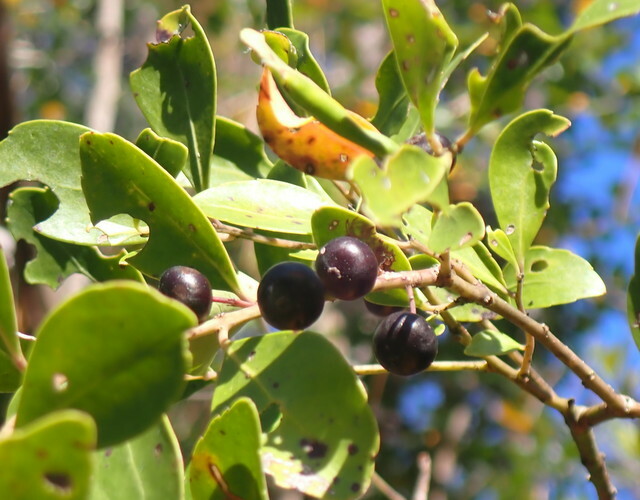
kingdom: Plantae
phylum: Tracheophyta
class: Magnoliopsida
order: Aquifoliales
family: Aquifoliaceae
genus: Ilex
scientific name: Ilex glabra
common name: Bitter gallberry
